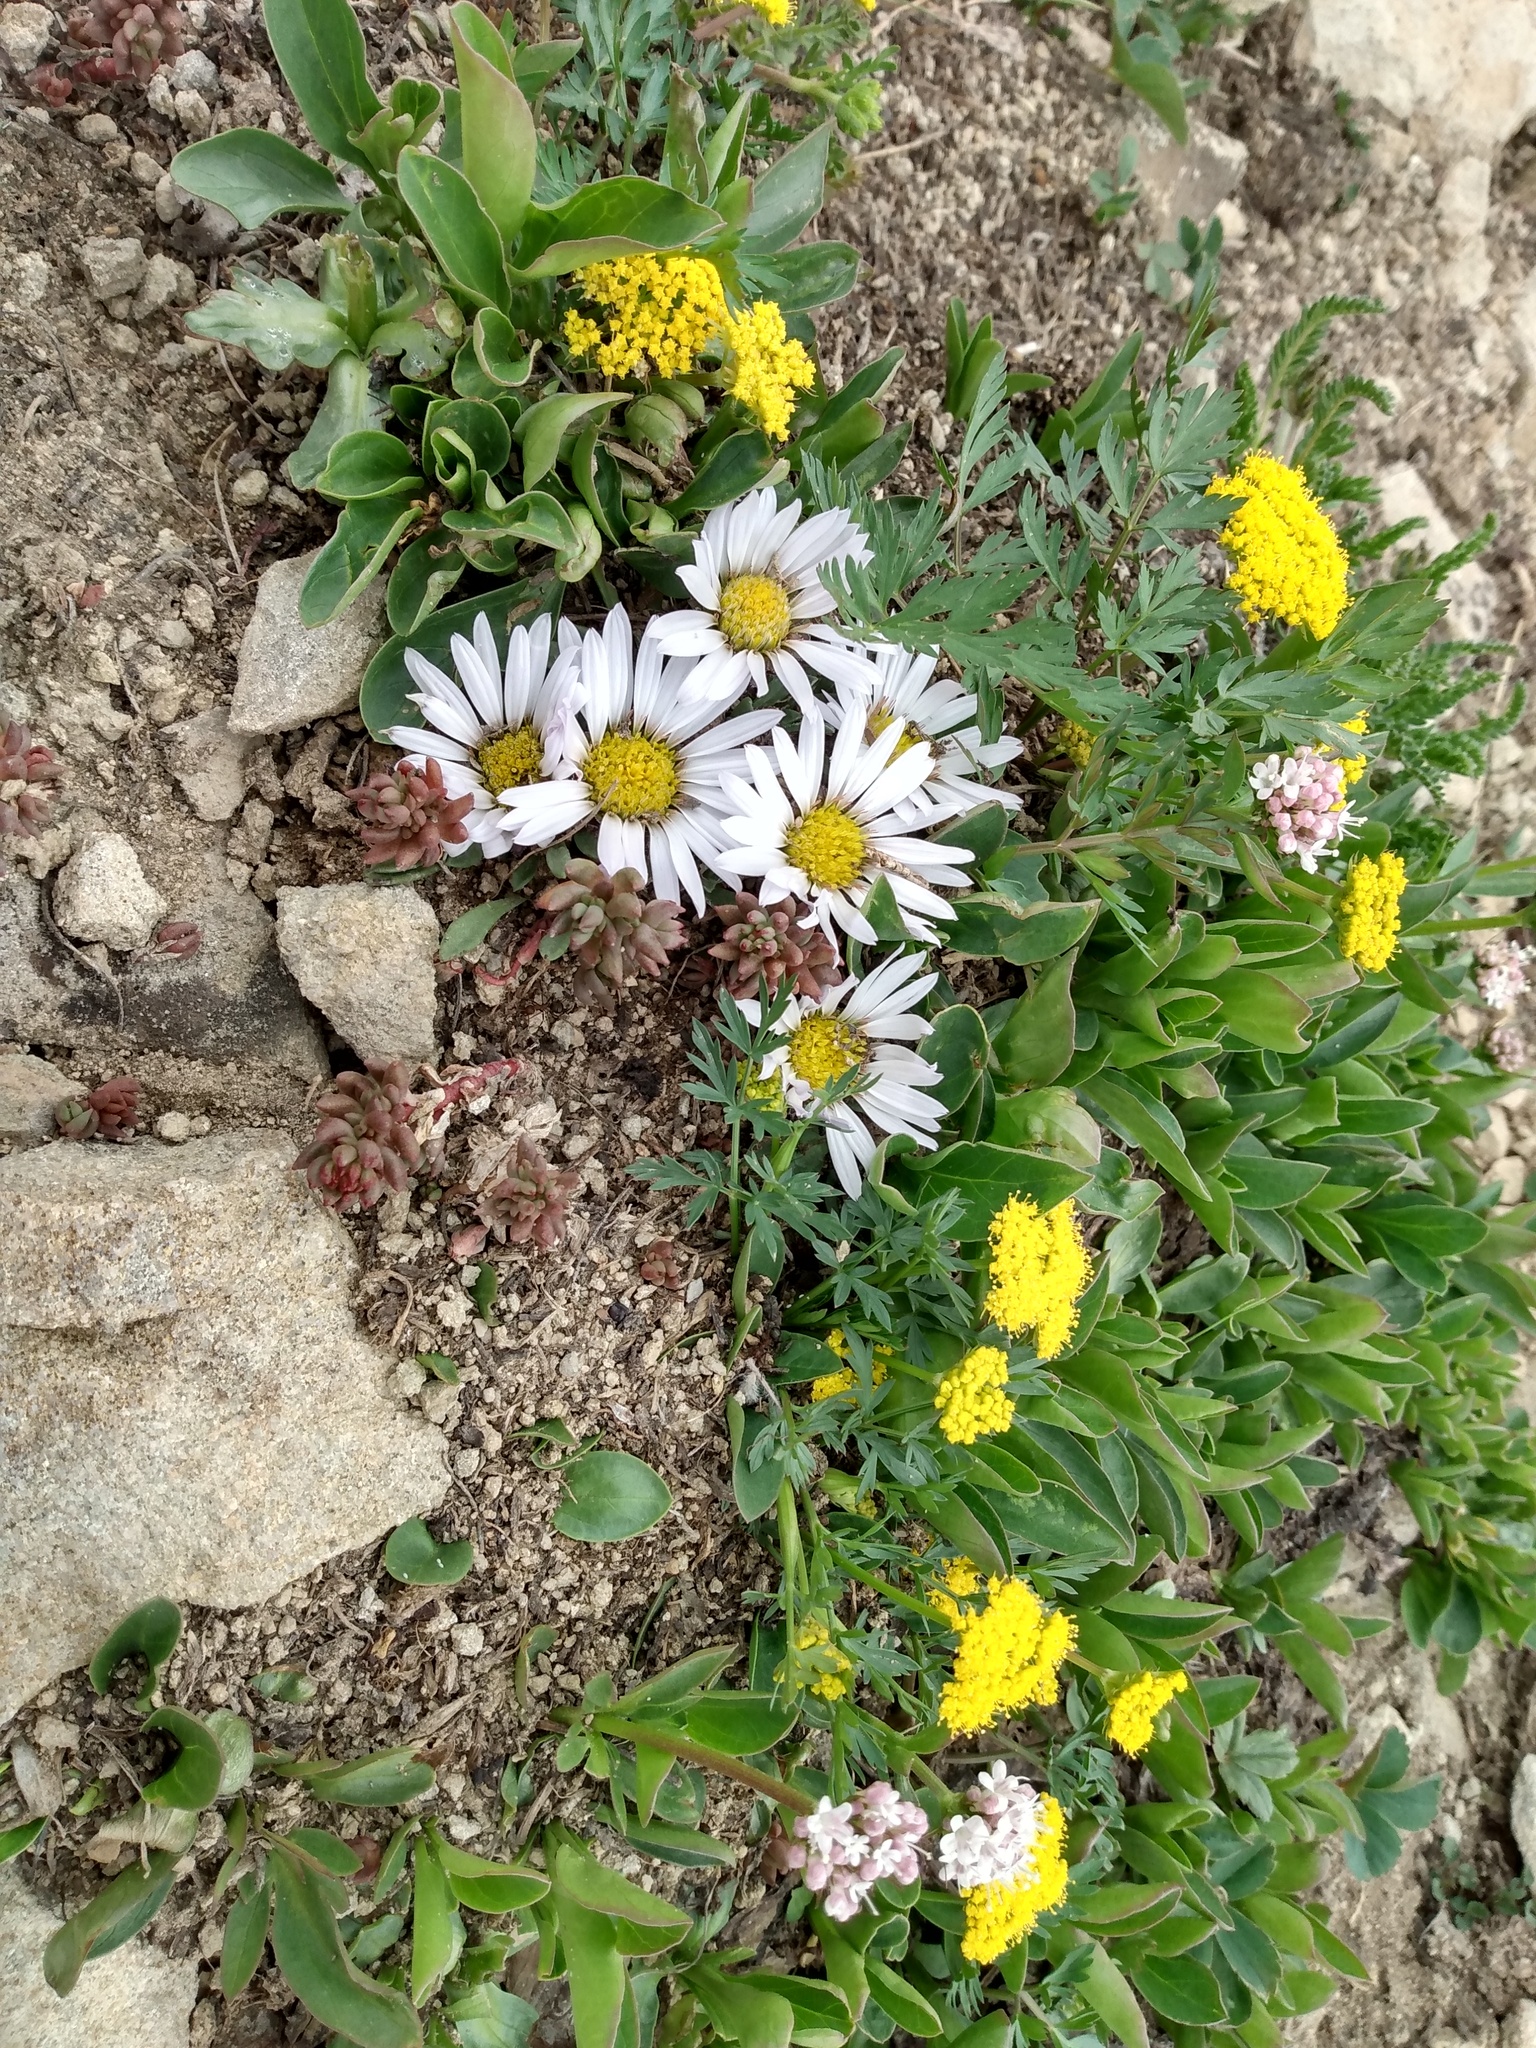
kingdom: Plantae
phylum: Tracheophyta
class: Magnoliopsida
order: Apiales
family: Apiaceae
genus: Cymopterus
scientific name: Cymopterus lemmonii
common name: Lemmon's spring-parsley
